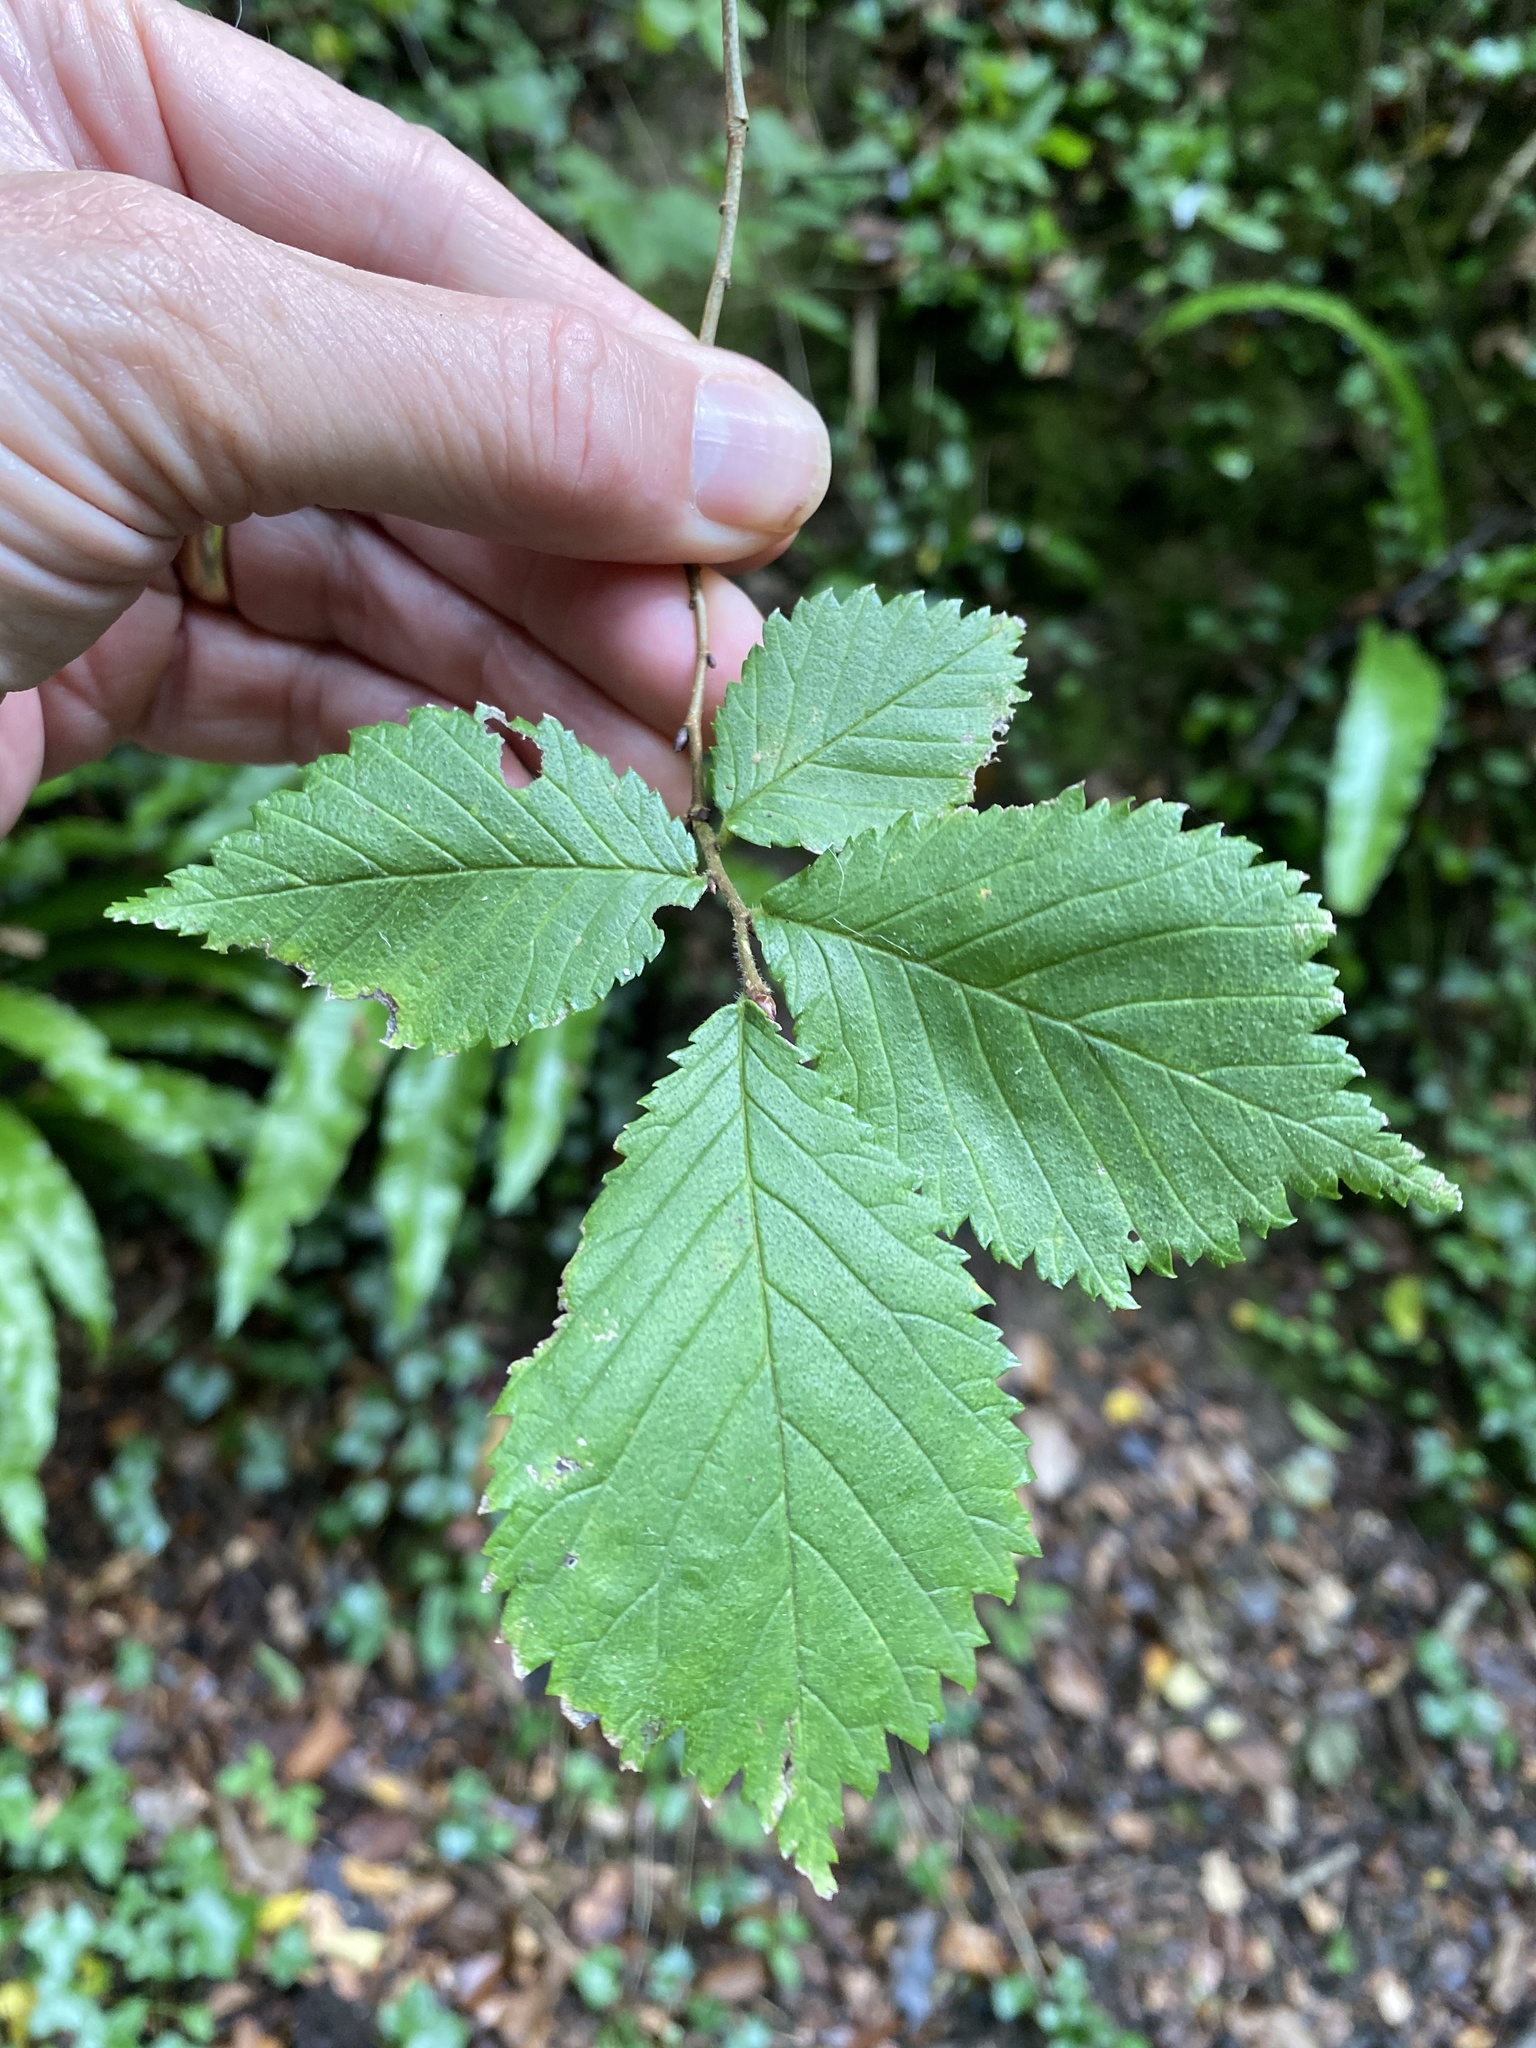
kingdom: Plantae
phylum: Tracheophyta
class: Magnoliopsida
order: Rosales
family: Ulmaceae
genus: Ulmus
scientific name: Ulmus glabra
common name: Wych elm
